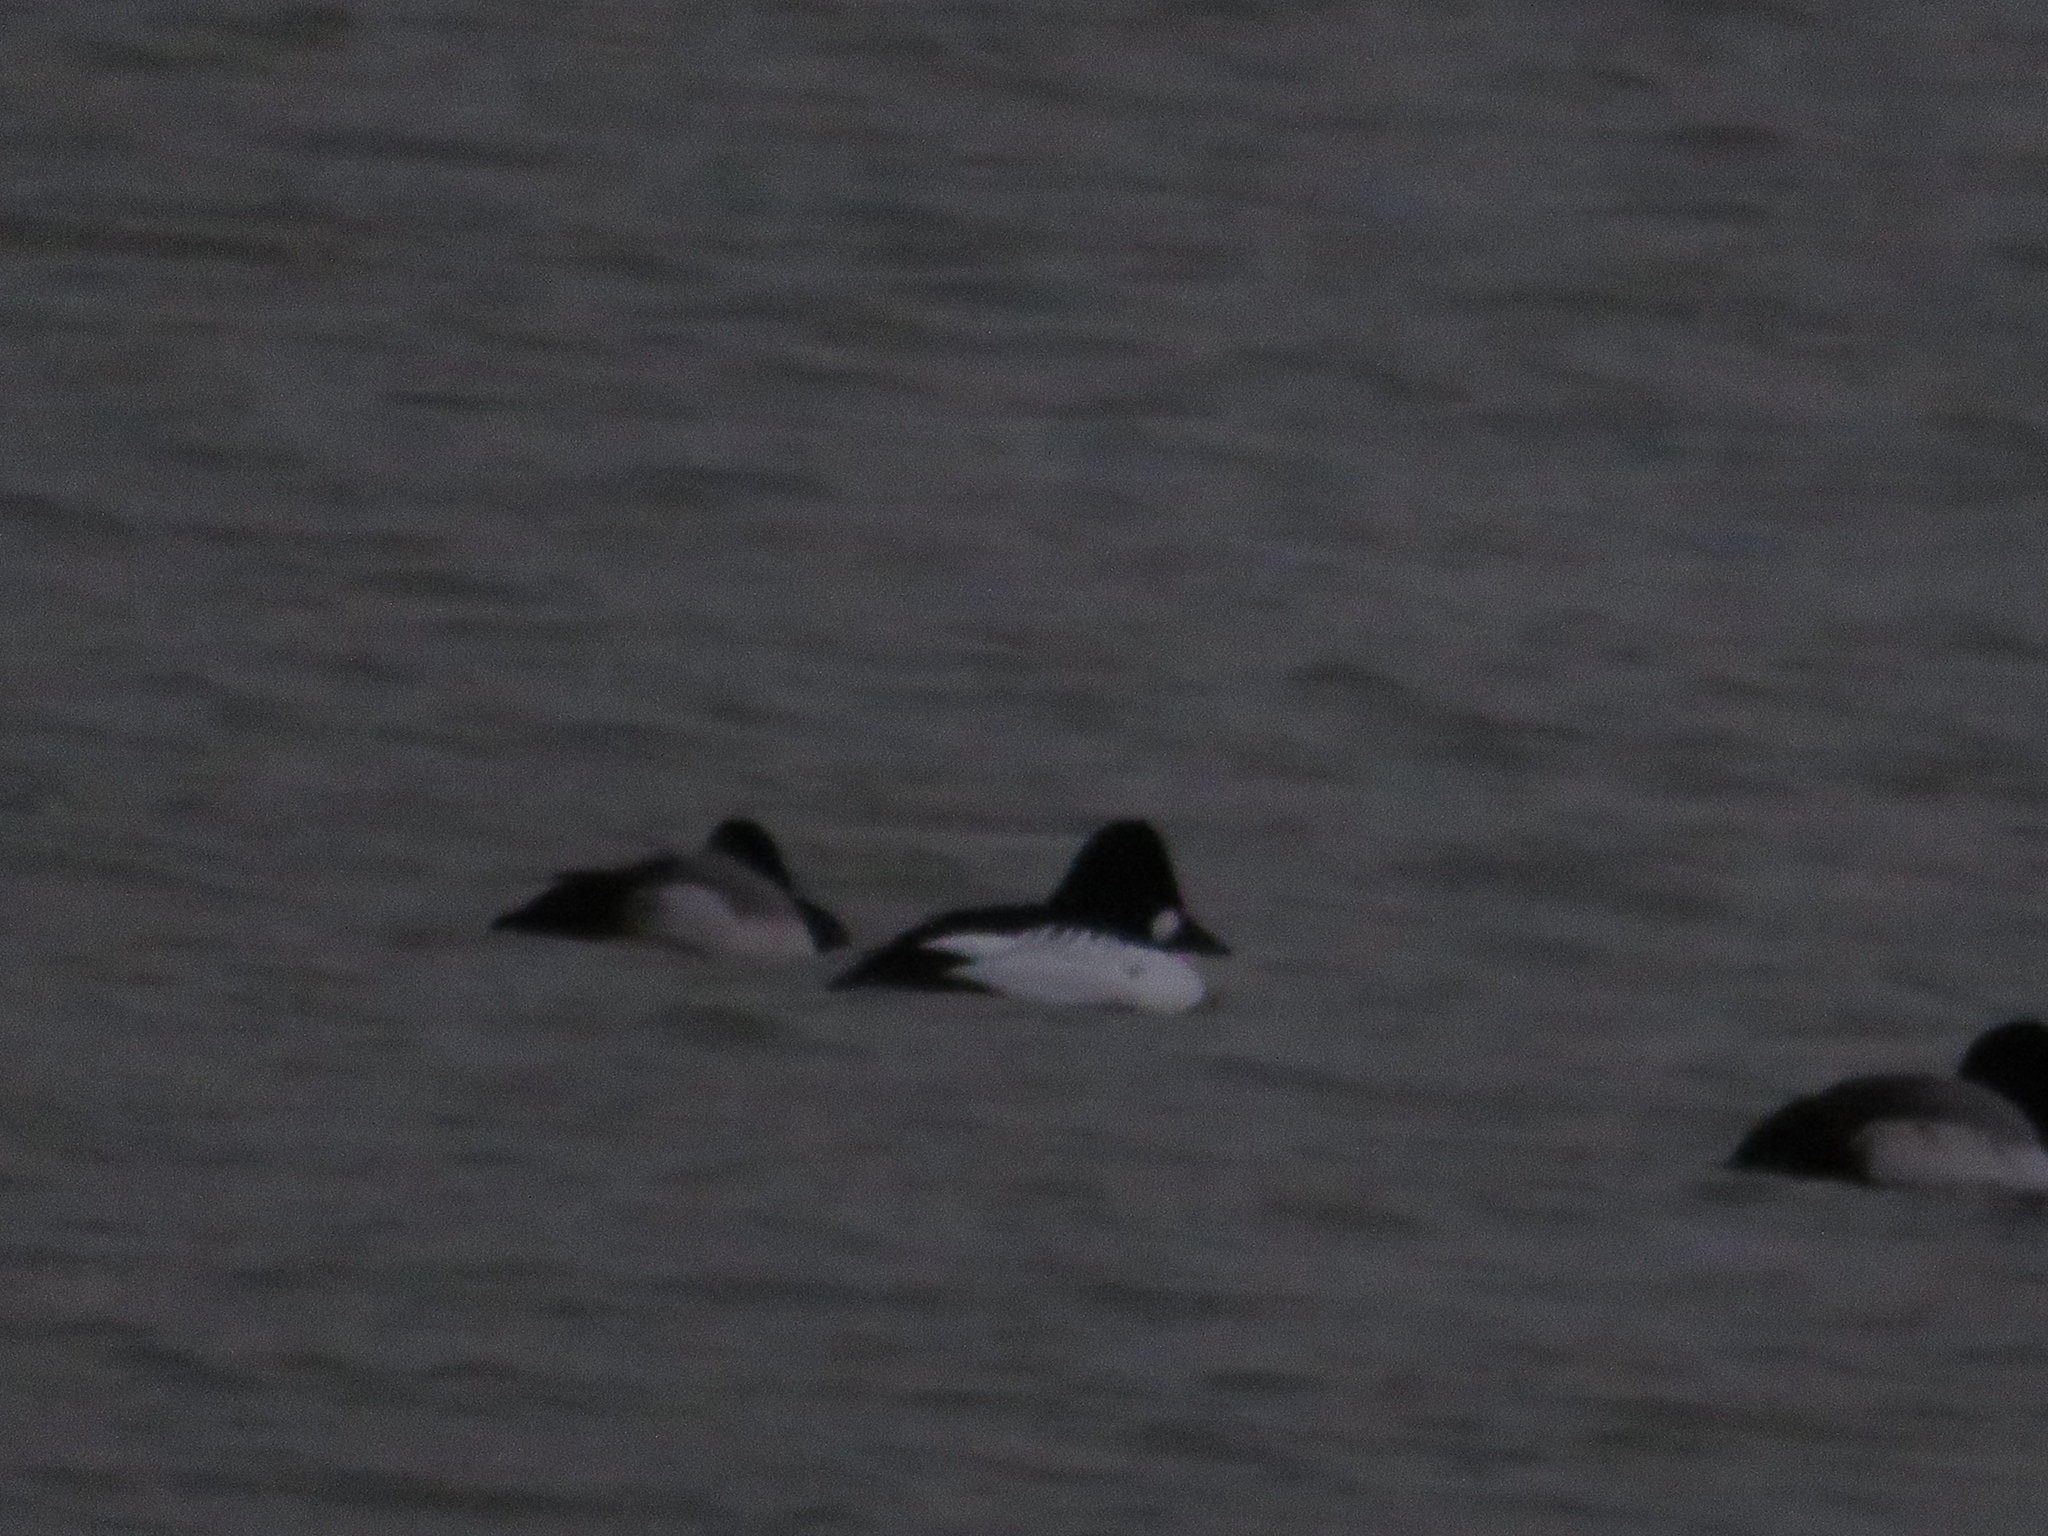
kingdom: Animalia
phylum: Chordata
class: Aves
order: Anseriformes
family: Anatidae
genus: Bucephala
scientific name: Bucephala clangula
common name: Common goldeneye
